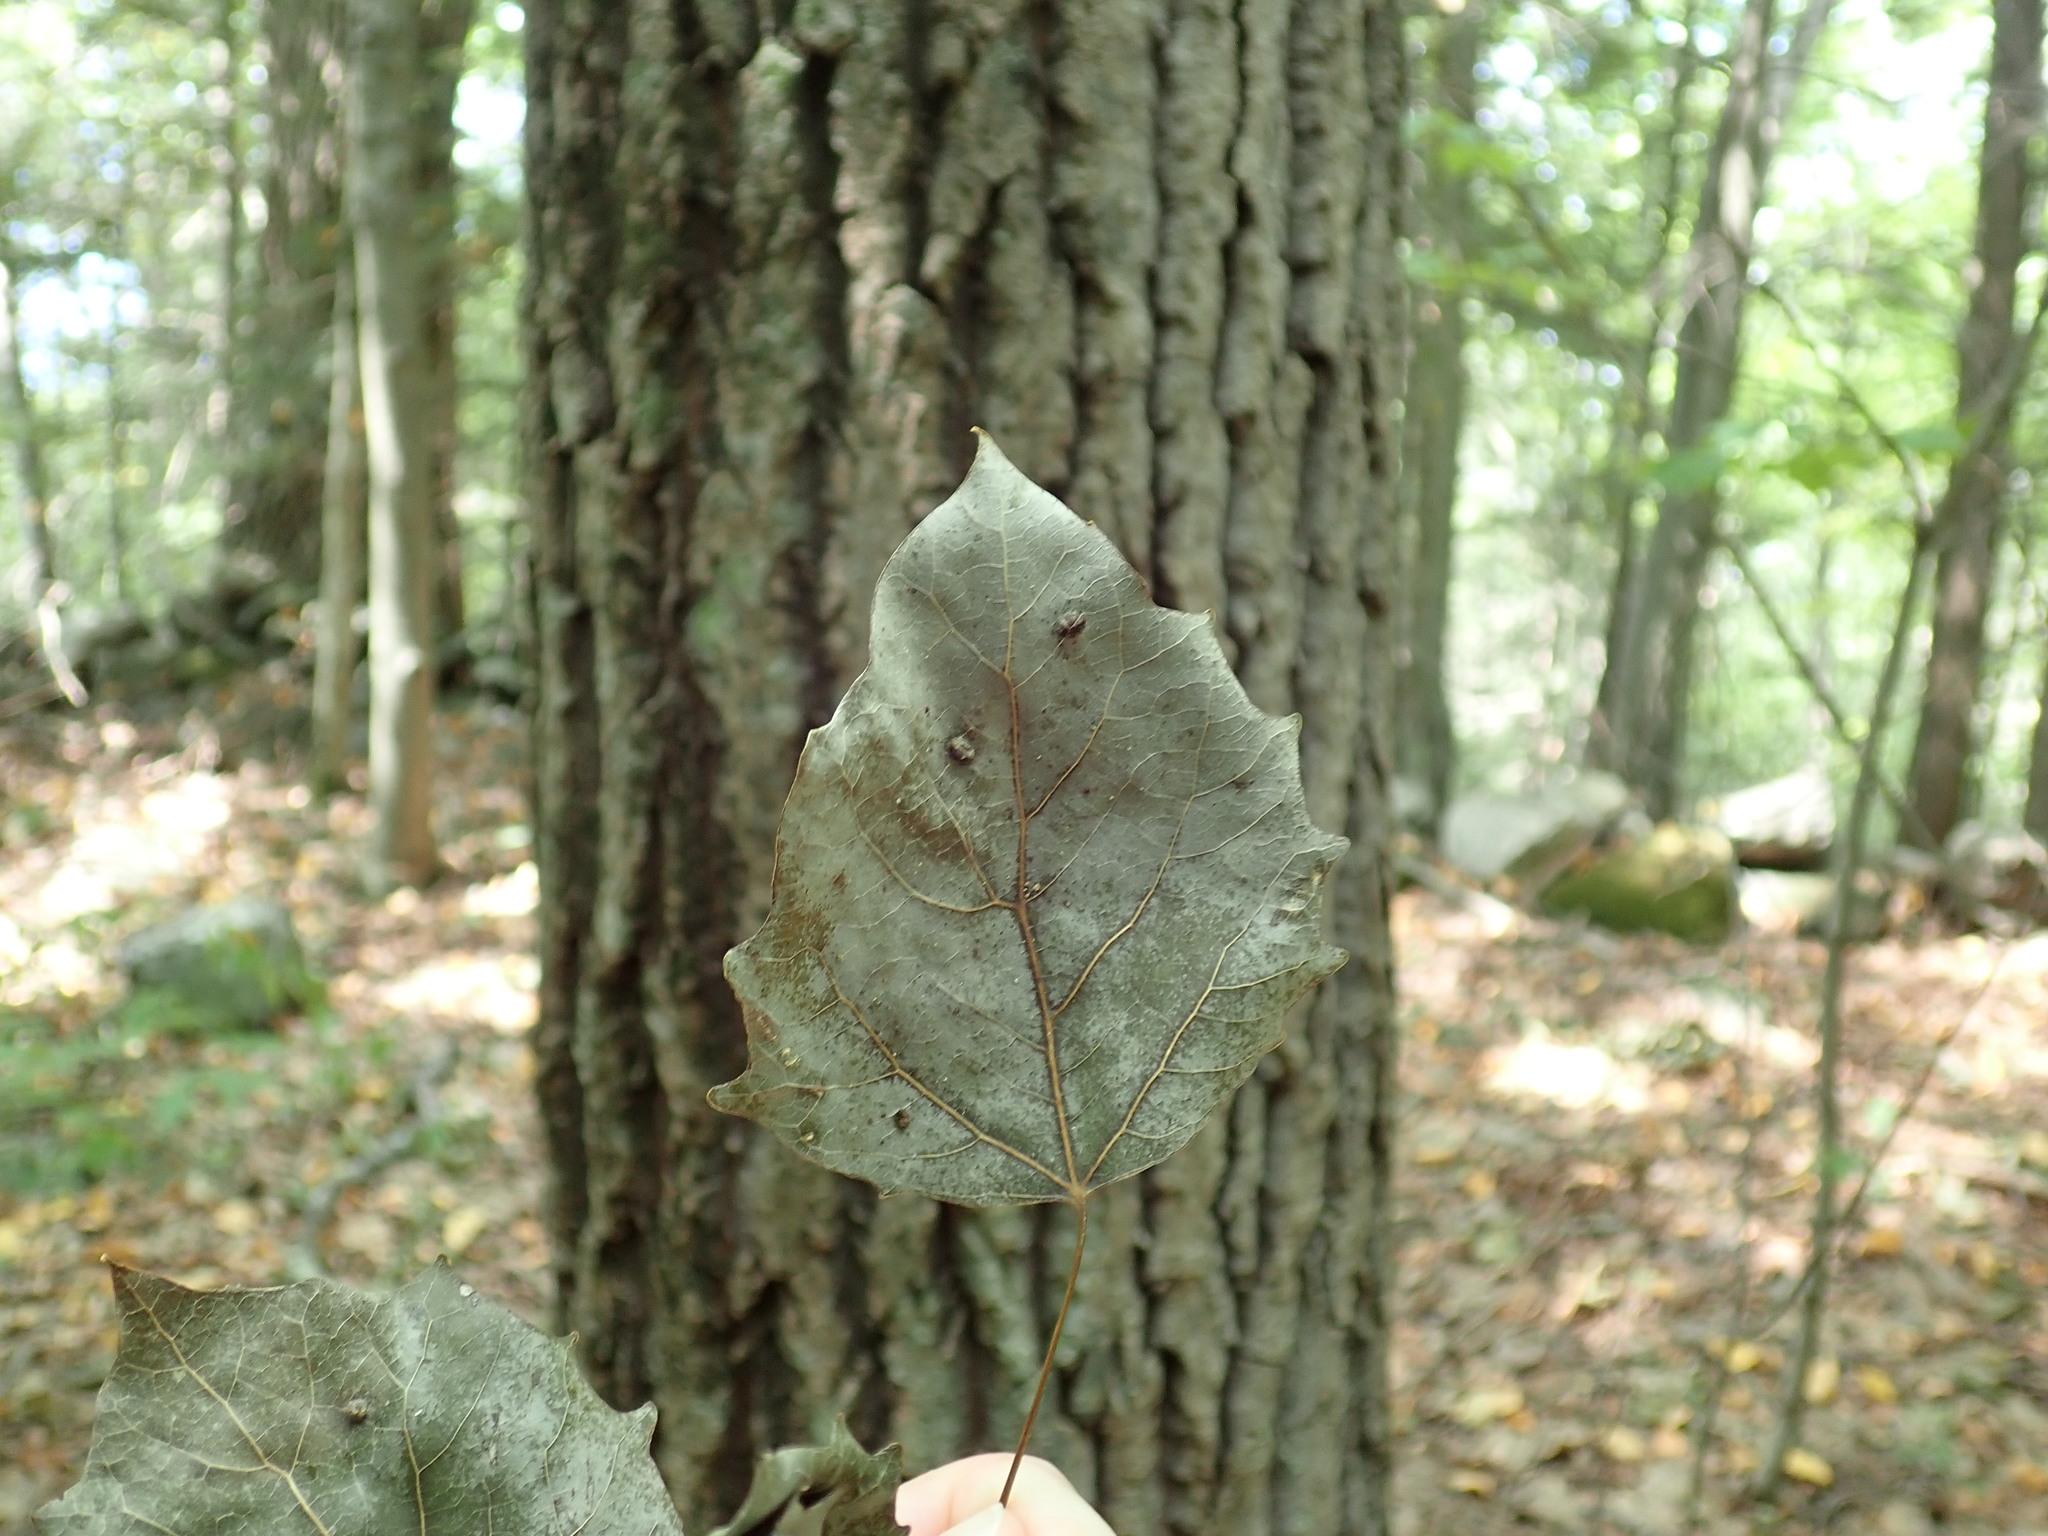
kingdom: Plantae
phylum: Tracheophyta
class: Magnoliopsida
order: Malpighiales
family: Salicaceae
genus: Populus
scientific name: Populus grandidentata
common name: Bigtooth aspen
